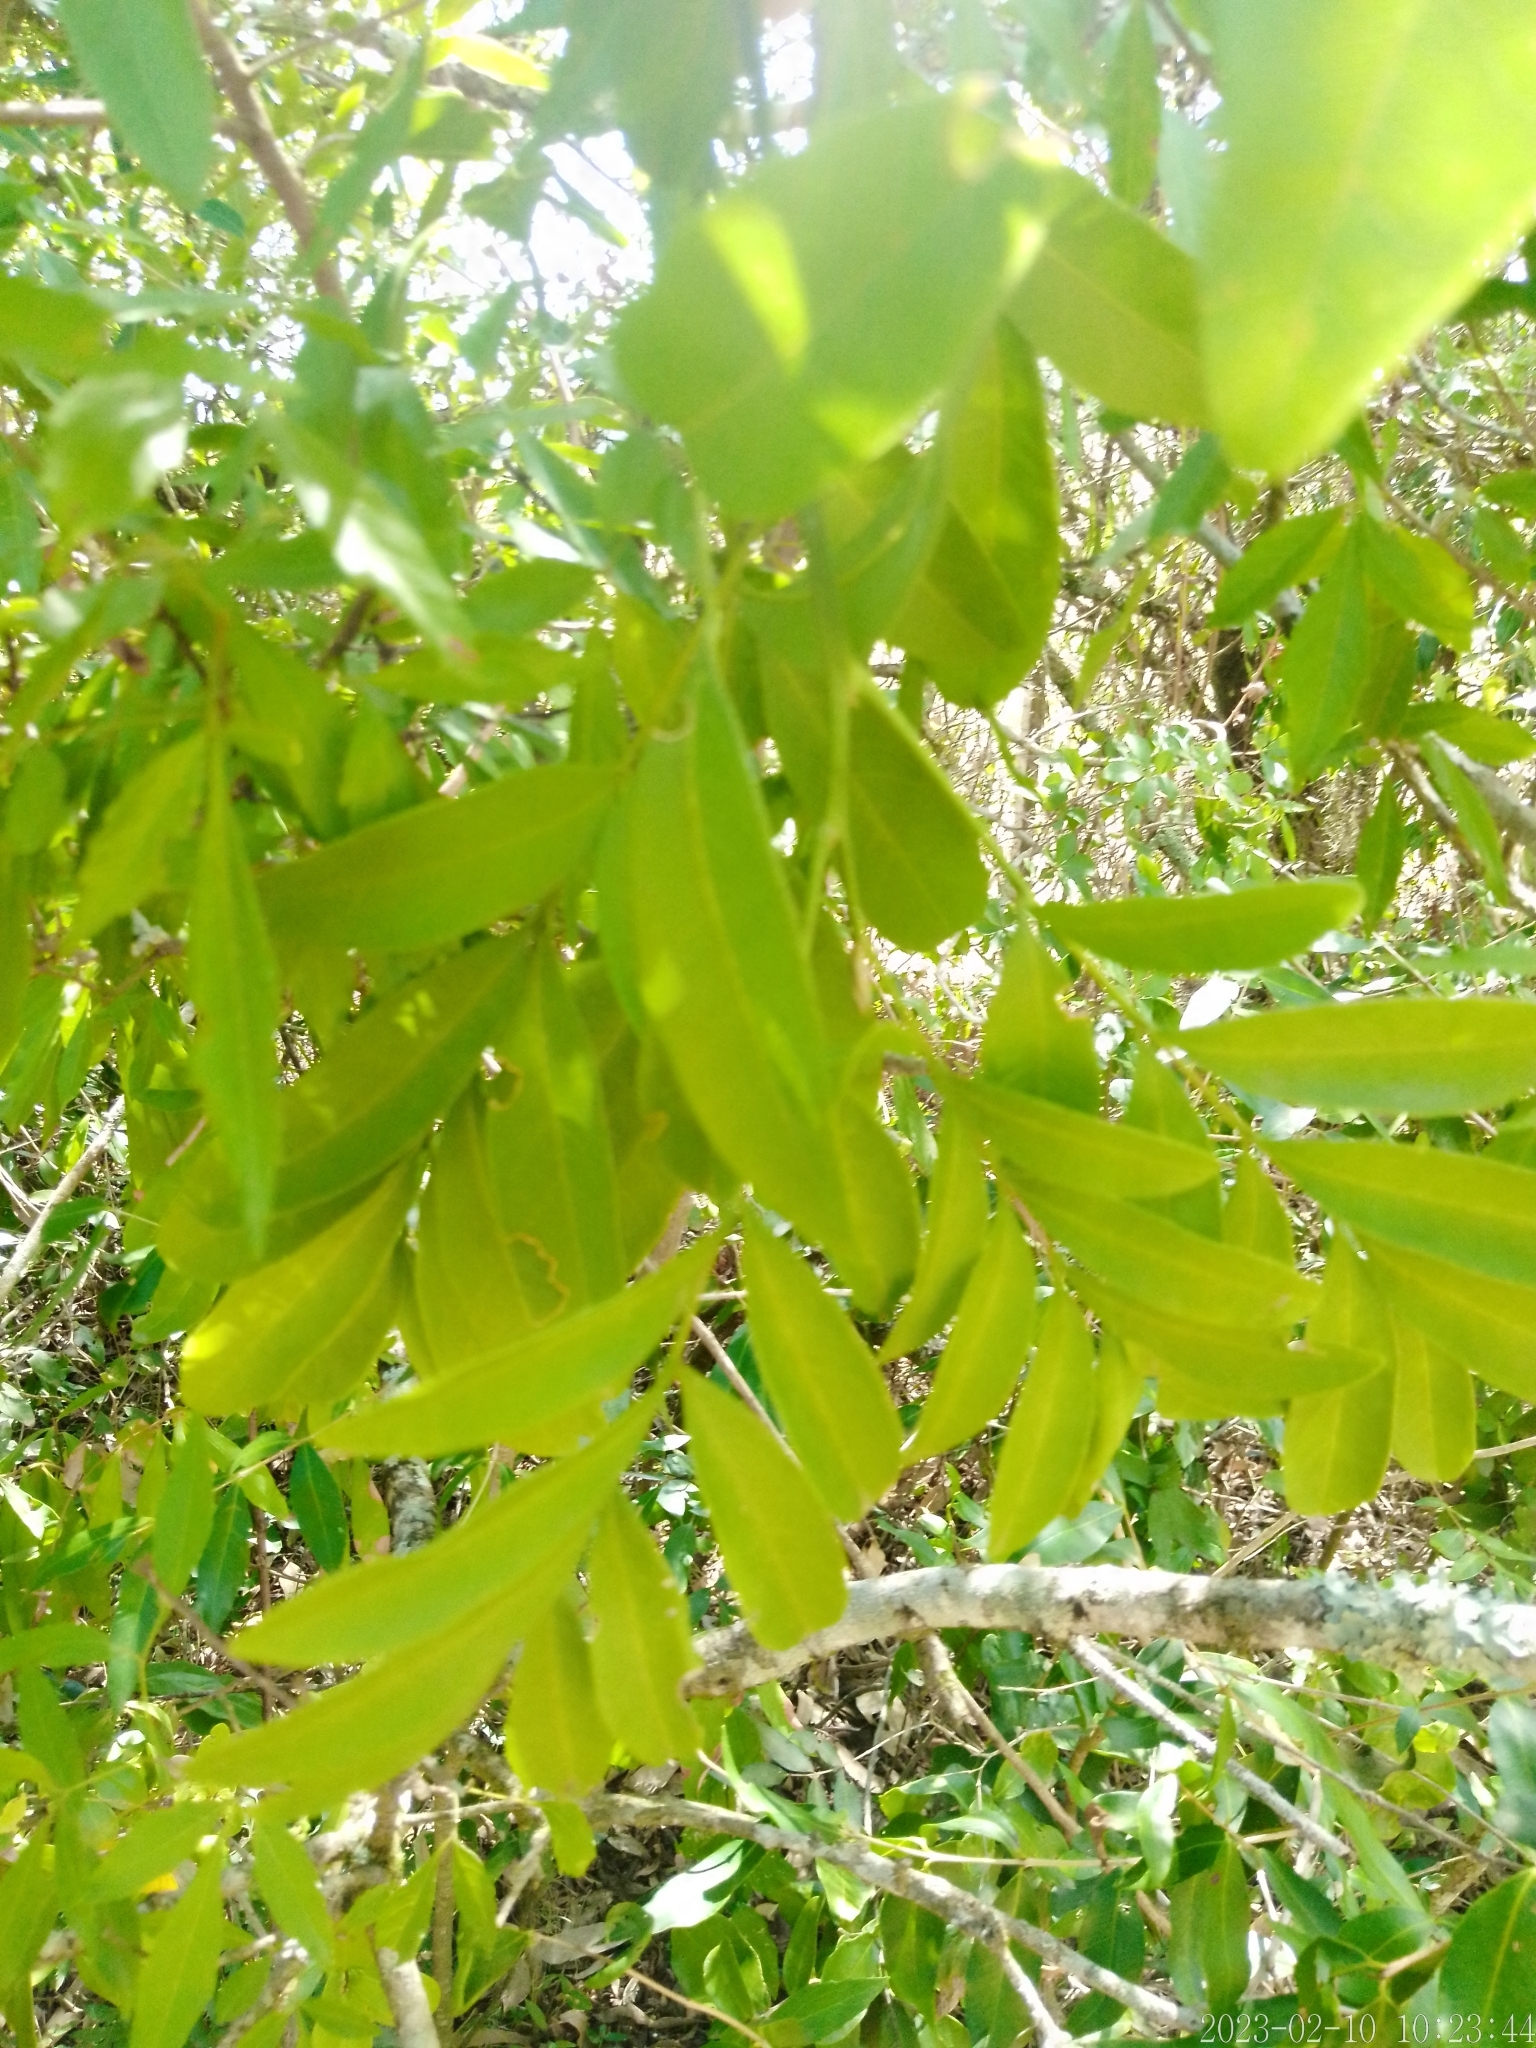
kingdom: Plantae
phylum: Tracheophyta
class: Magnoliopsida
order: Sapindales
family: Sapindaceae
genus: Matayba
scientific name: Matayba elaeagnoides
